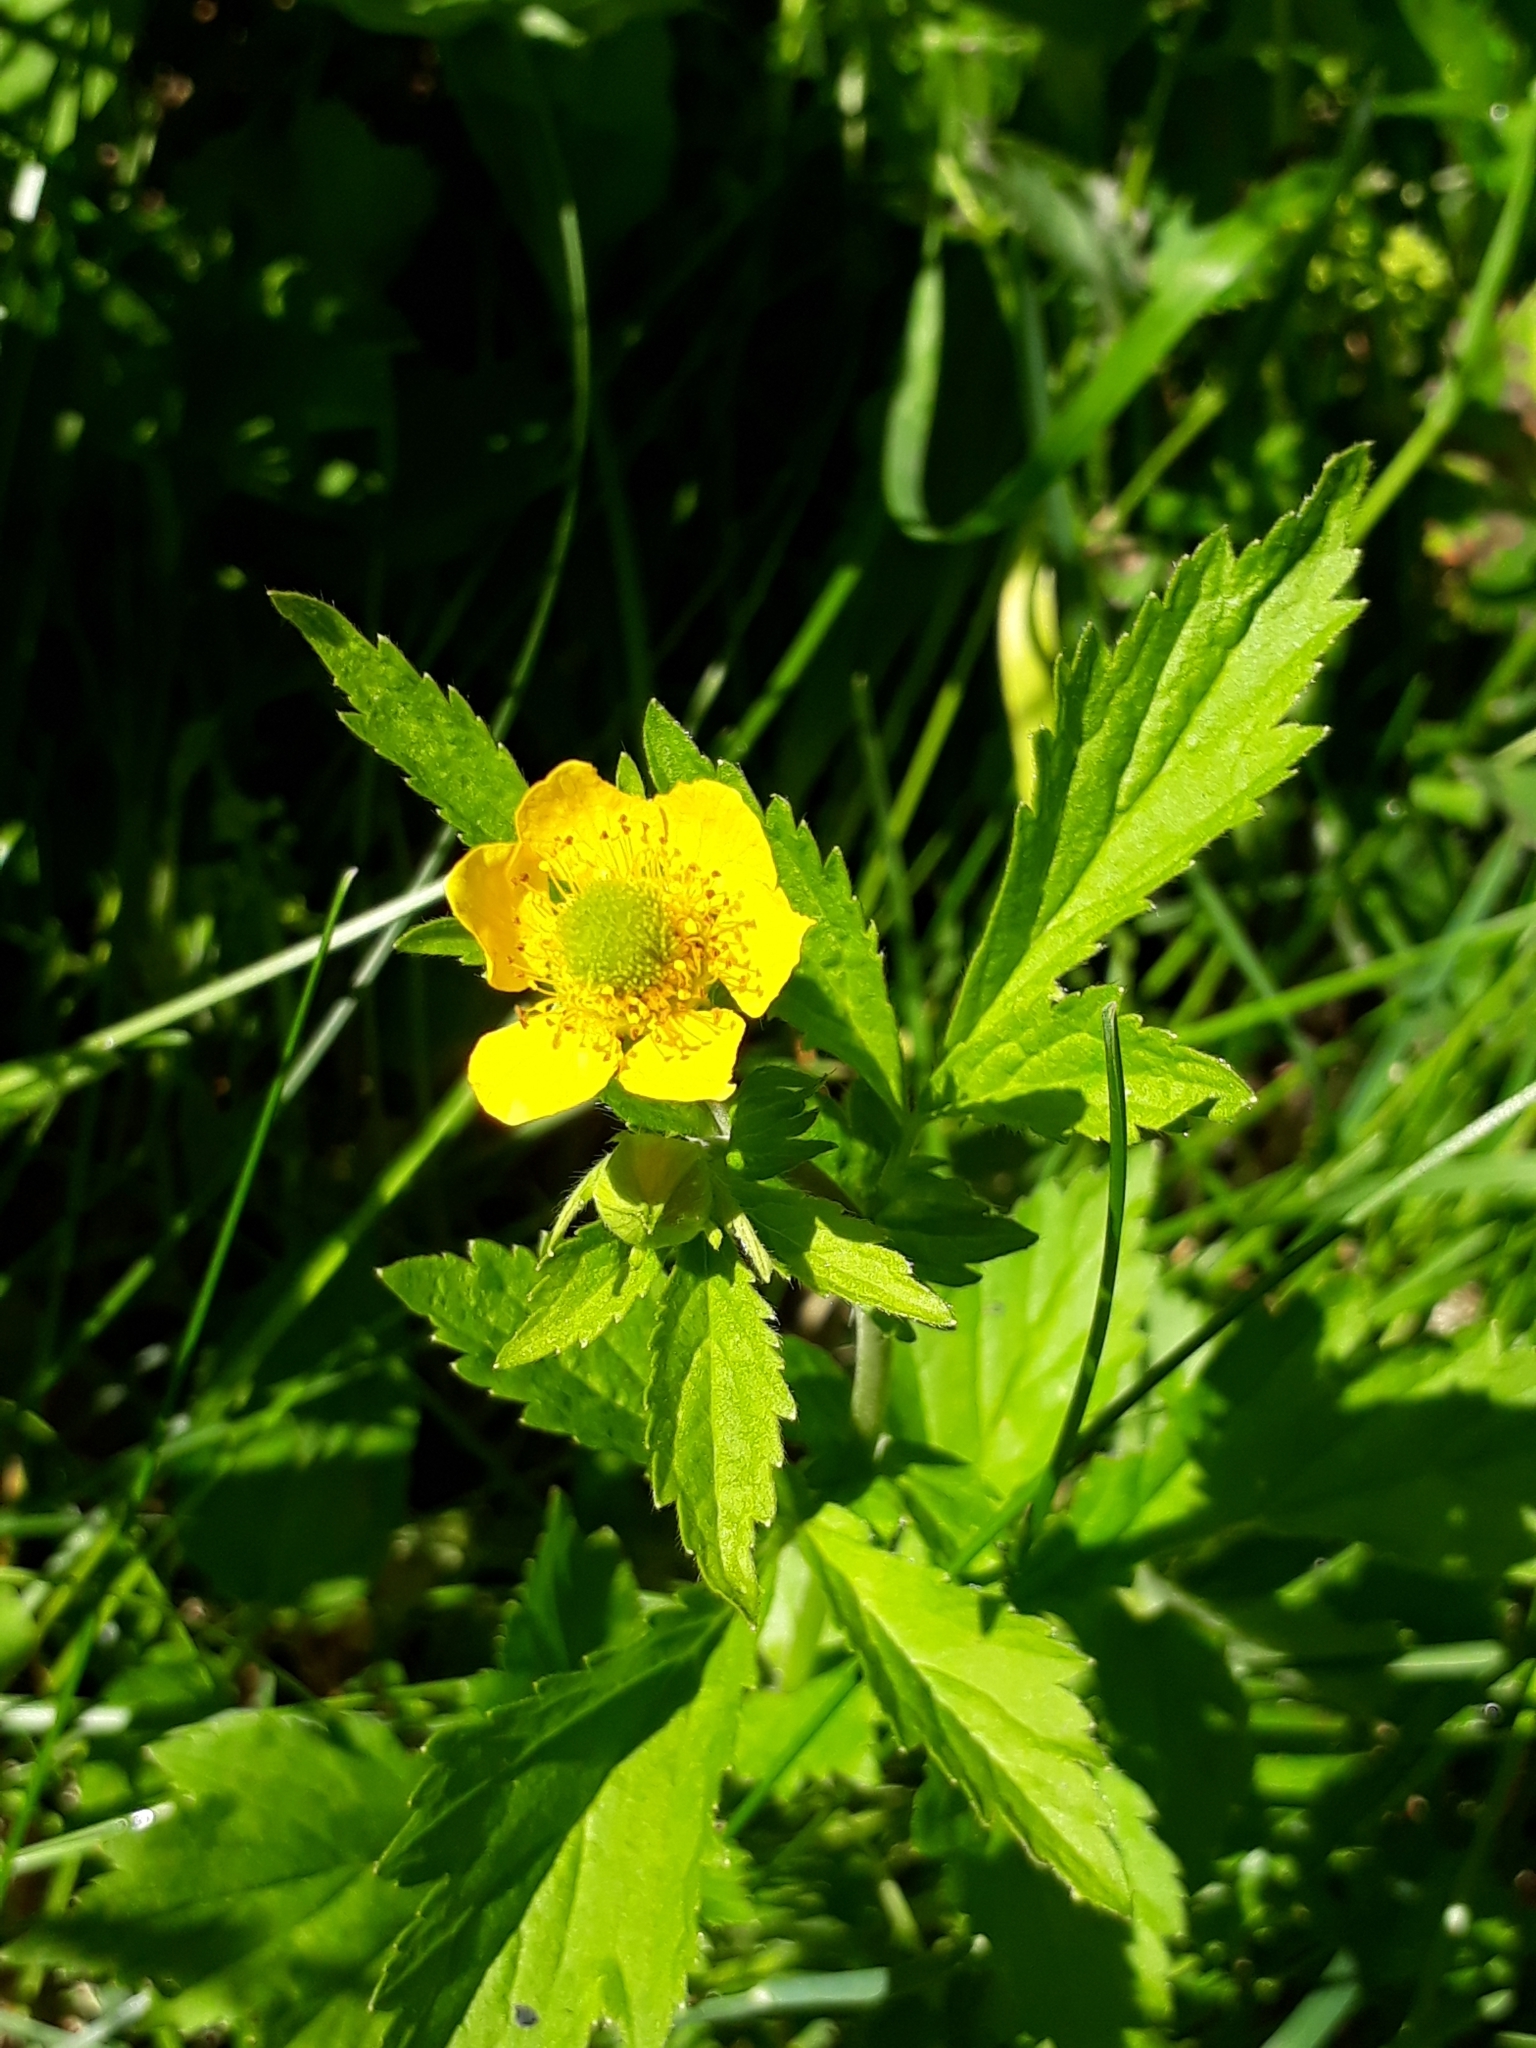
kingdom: Plantae
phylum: Tracheophyta
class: Magnoliopsida
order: Rosales
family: Rosaceae
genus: Geum
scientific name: Geum aleppicum
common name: Yellow avens
